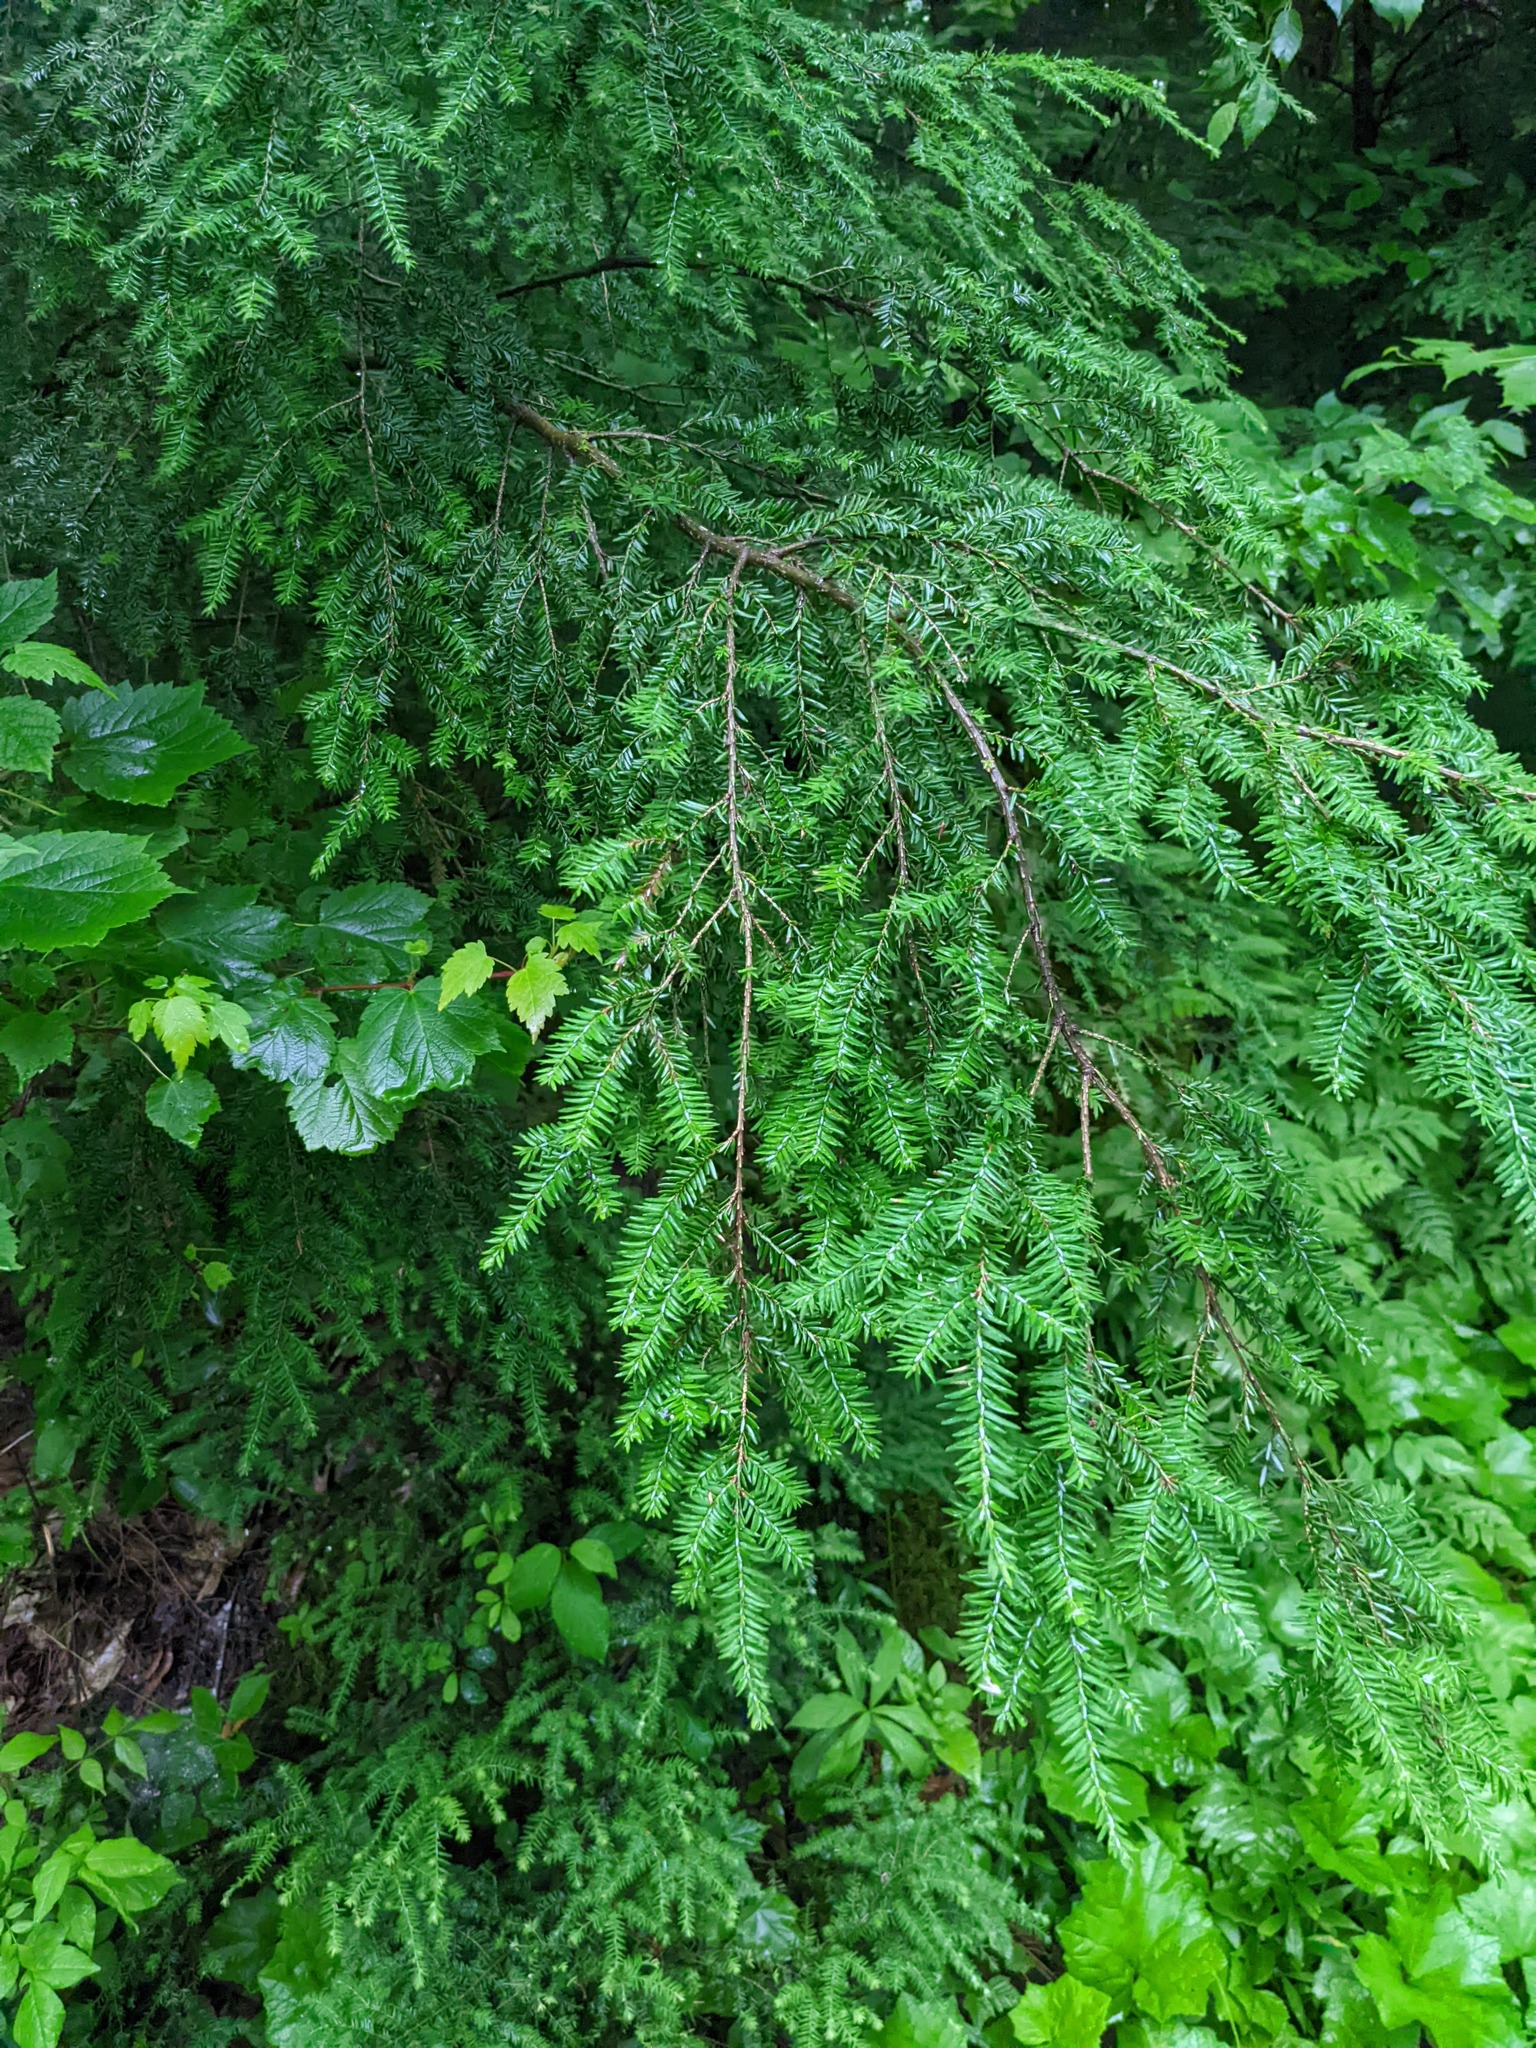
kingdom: Plantae
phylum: Tracheophyta
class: Pinopsida
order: Pinales
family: Pinaceae
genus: Tsuga
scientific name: Tsuga canadensis
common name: Eastern hemlock
